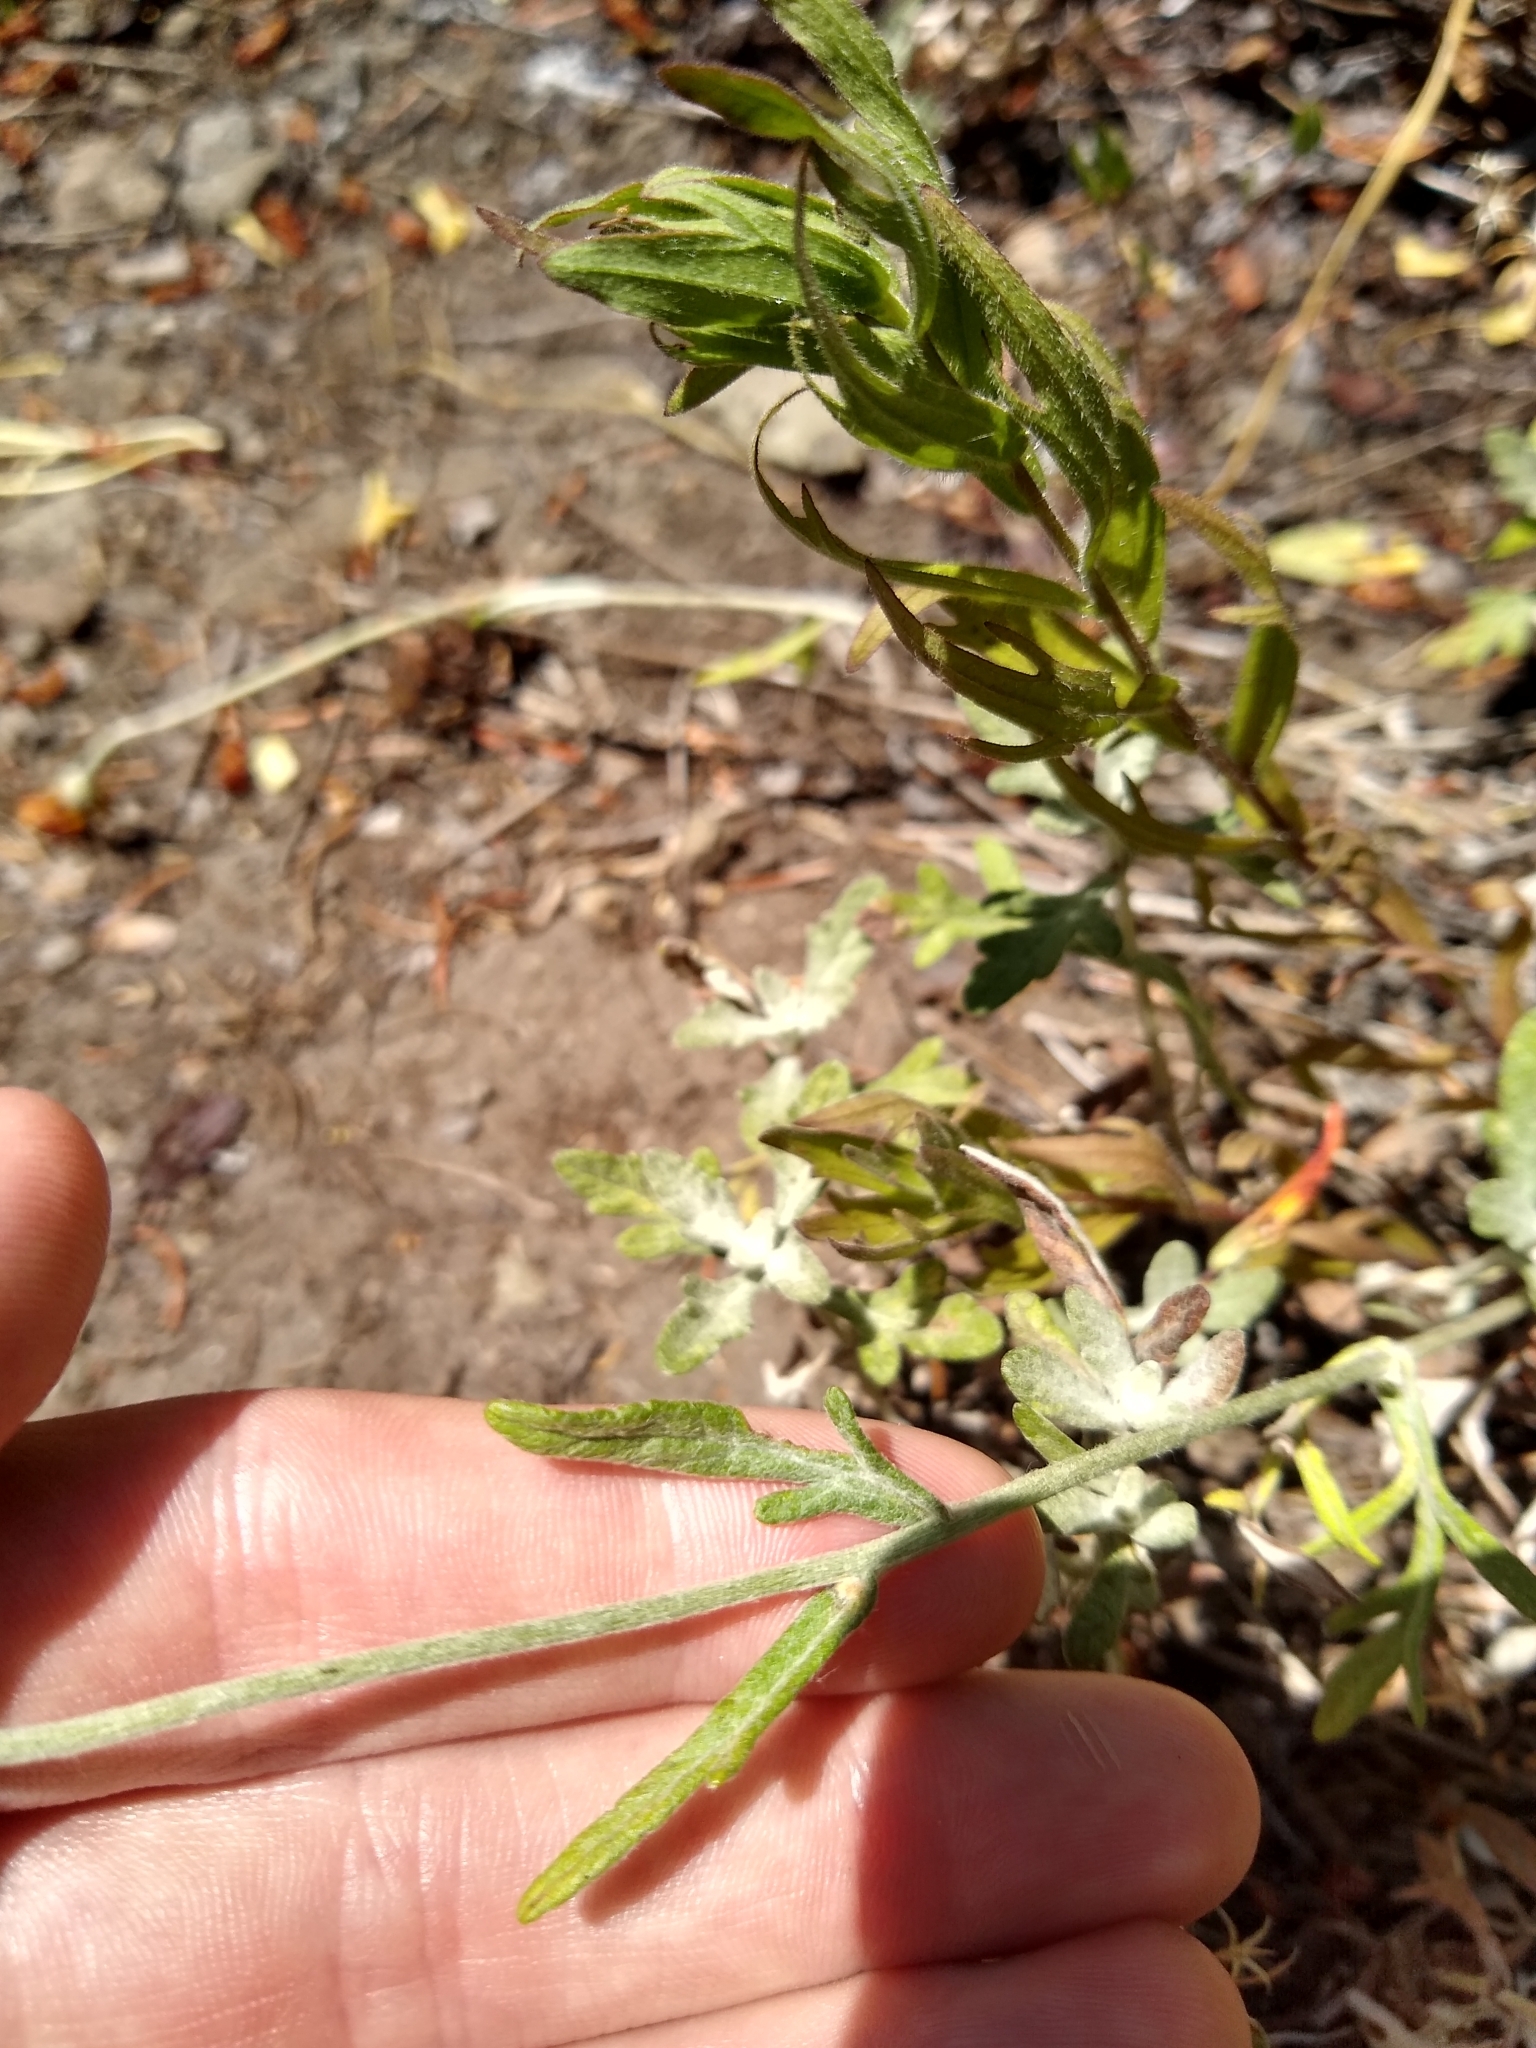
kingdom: Plantae
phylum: Tracheophyta
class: Magnoliopsida
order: Asterales
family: Asteraceae
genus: Eriophyllum
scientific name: Eriophyllum lanatum
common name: Common woolly-sunflower
